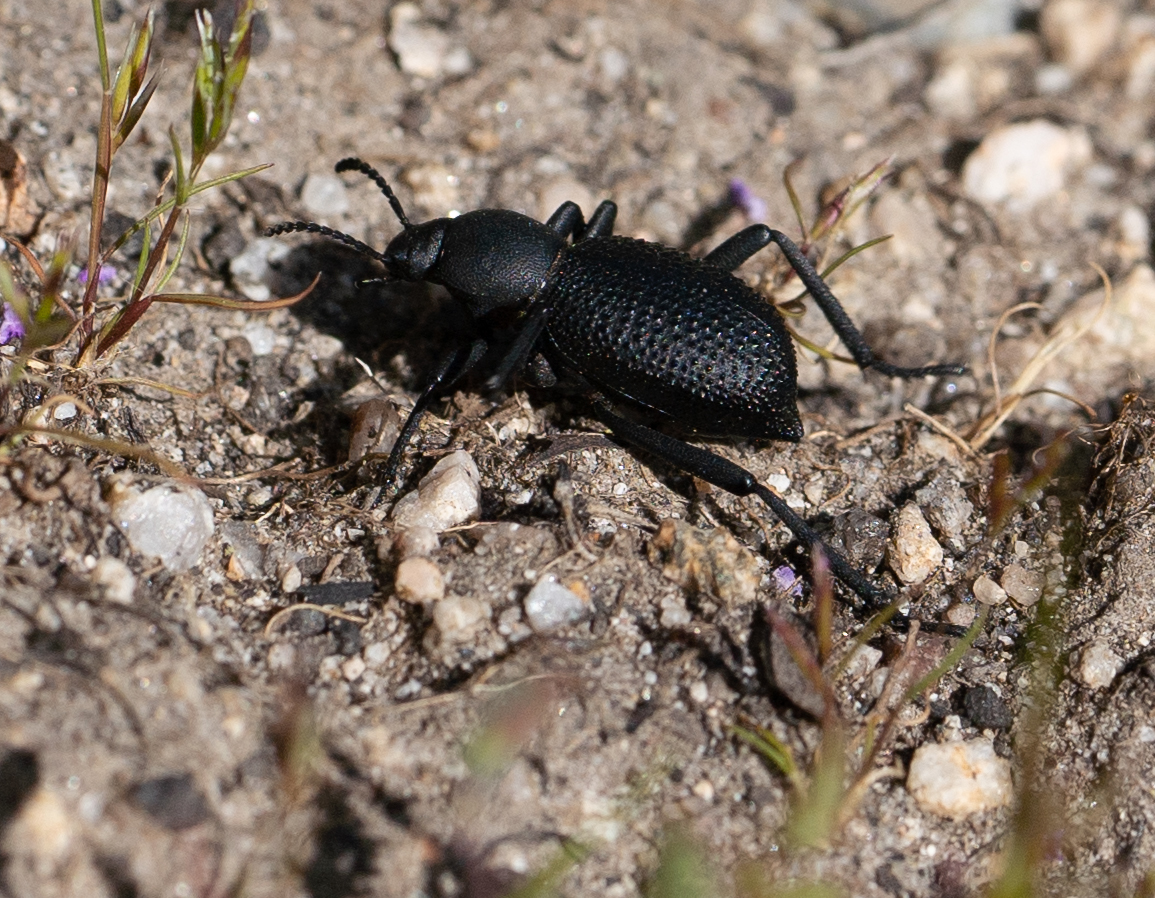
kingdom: Animalia
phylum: Arthropoda
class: Insecta
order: Coleoptera
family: Tenebrionidae
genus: Eleodes
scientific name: Eleodes granosa
